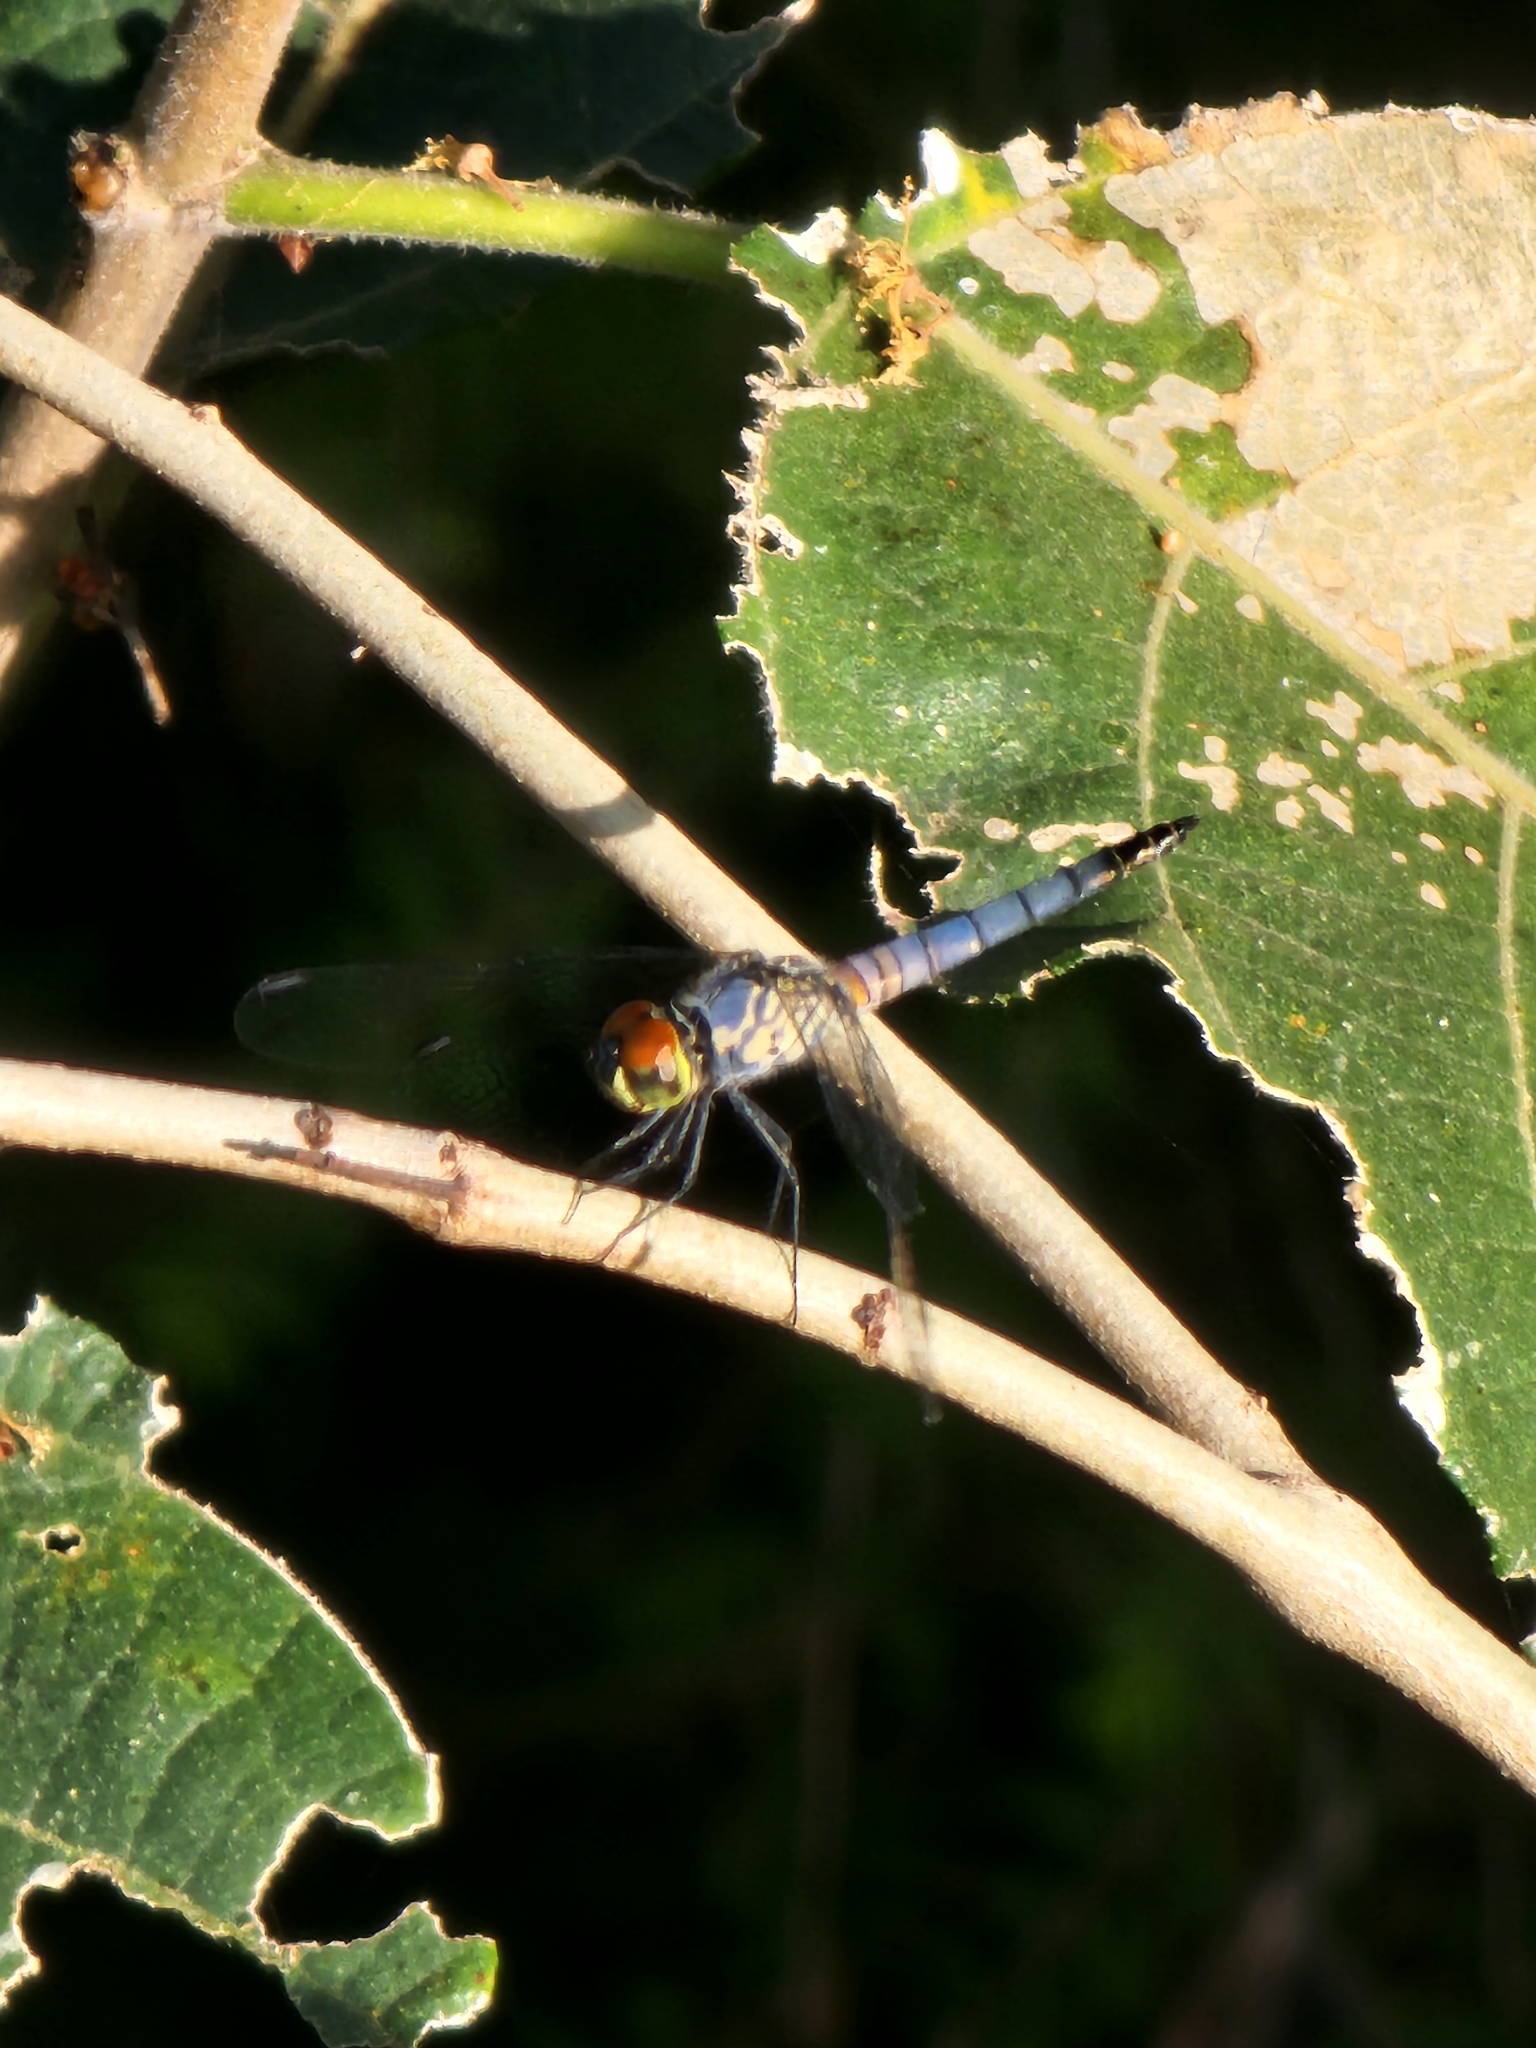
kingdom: Animalia
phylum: Arthropoda
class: Insecta
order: Odonata
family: Libellulidae
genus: Brachydiplax
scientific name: Brachydiplax denticauda
